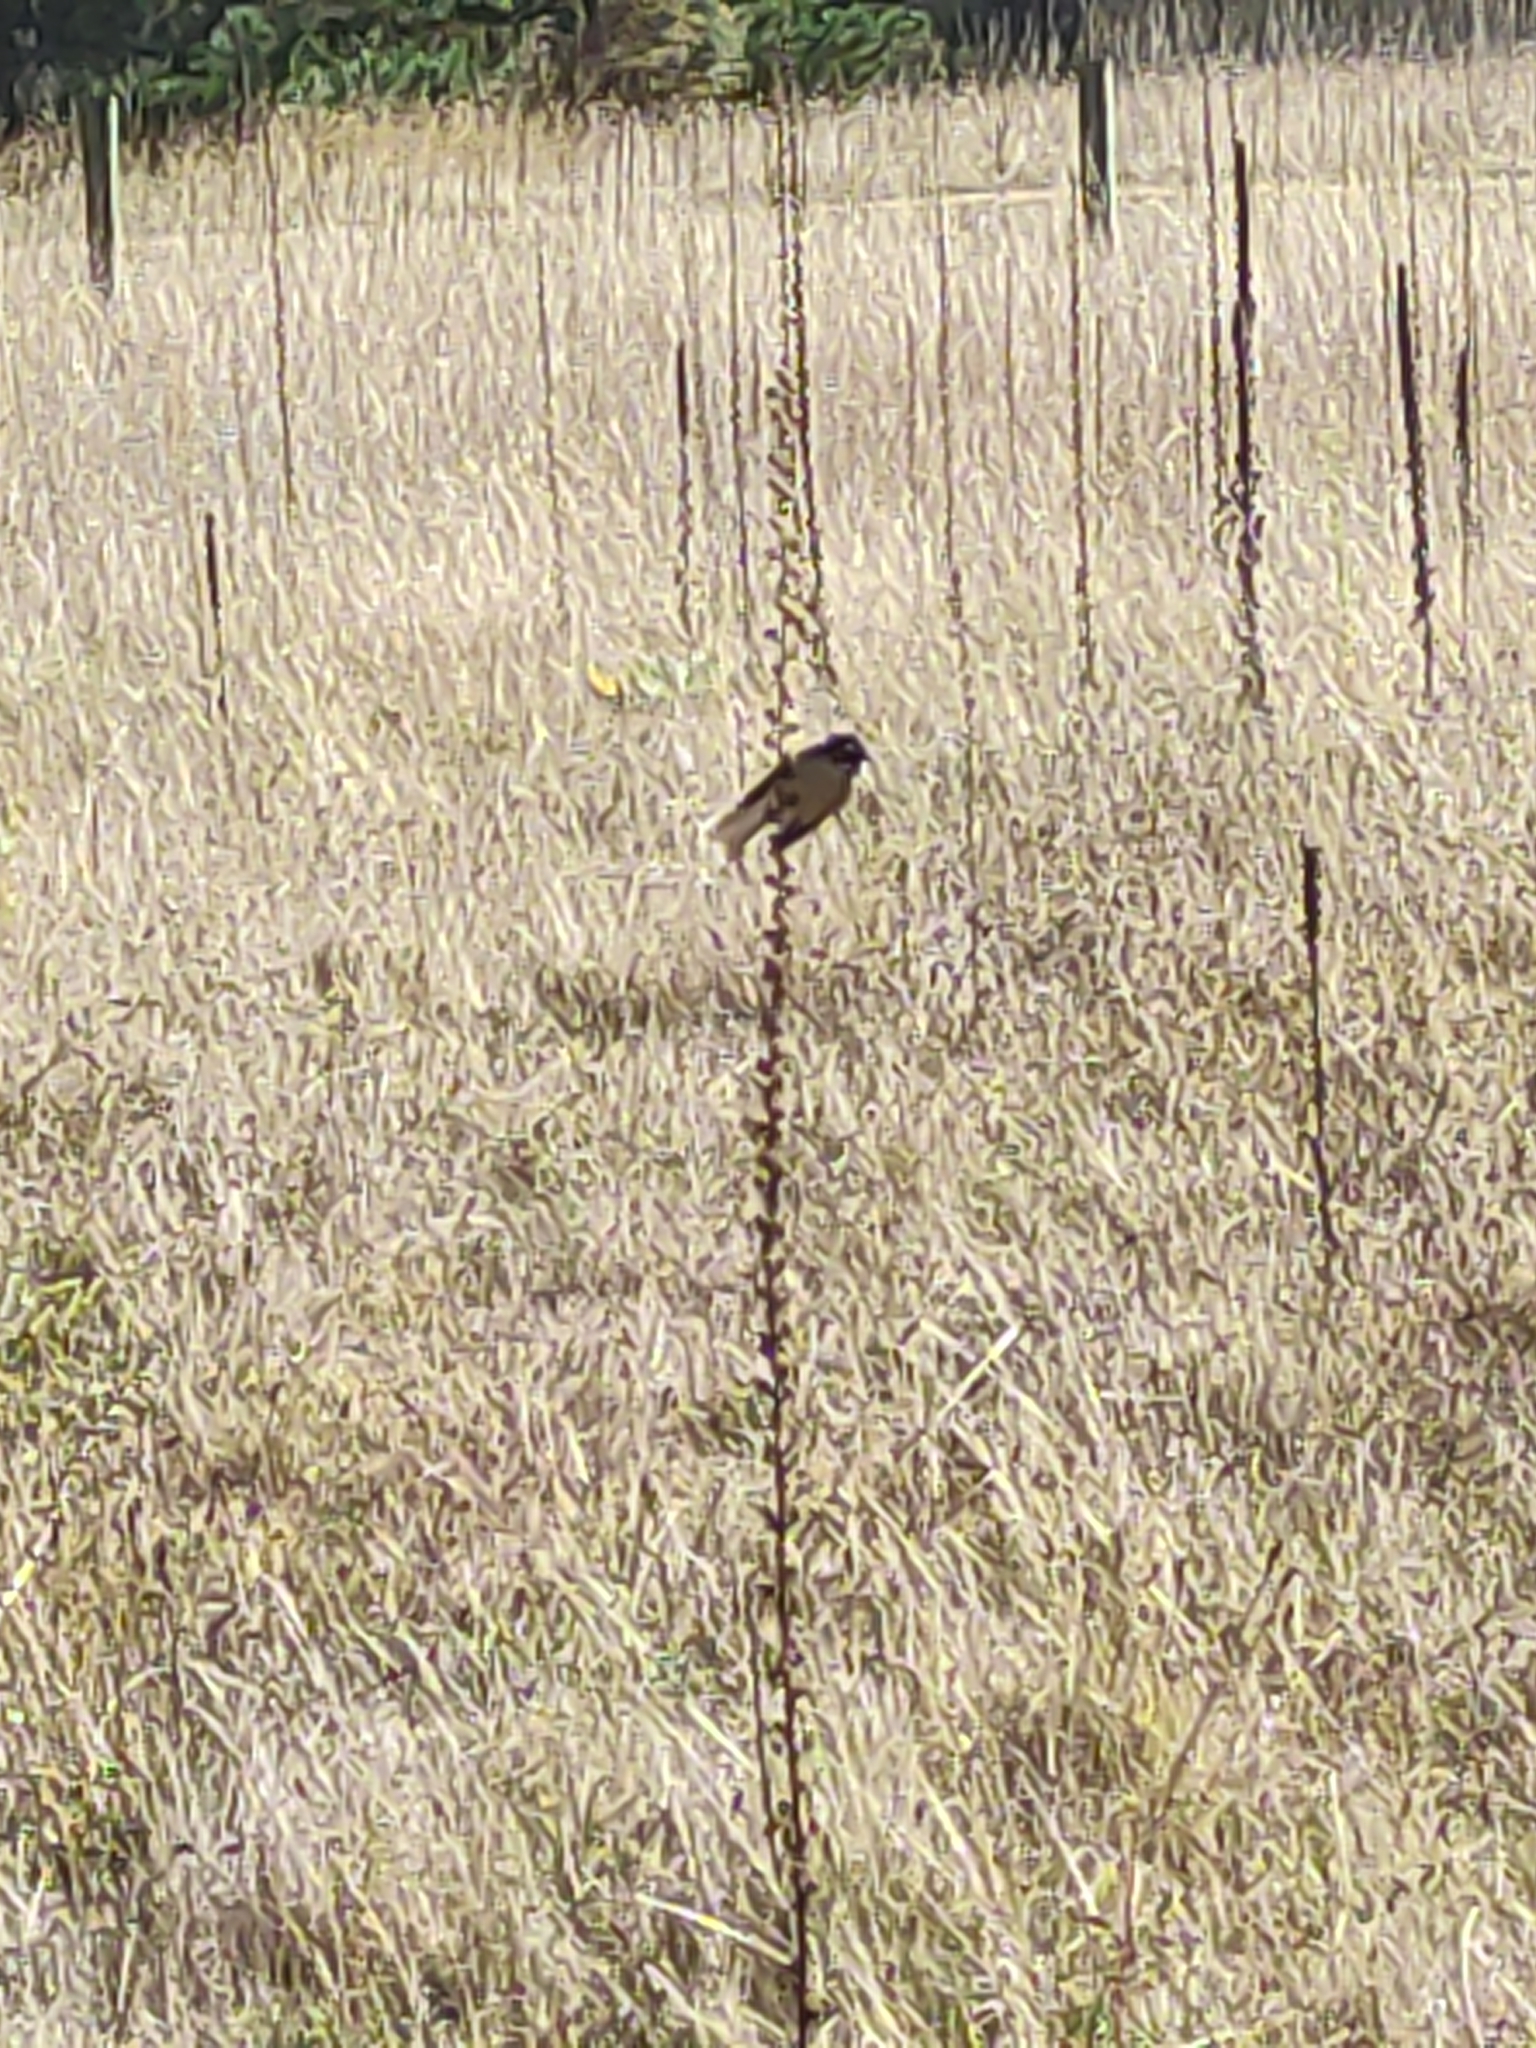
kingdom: Animalia
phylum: Chordata
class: Aves
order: Passeriformes
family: Rhipiduridae
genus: Rhipidura
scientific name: Rhipidura fuliginosa
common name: New zealand fantail
